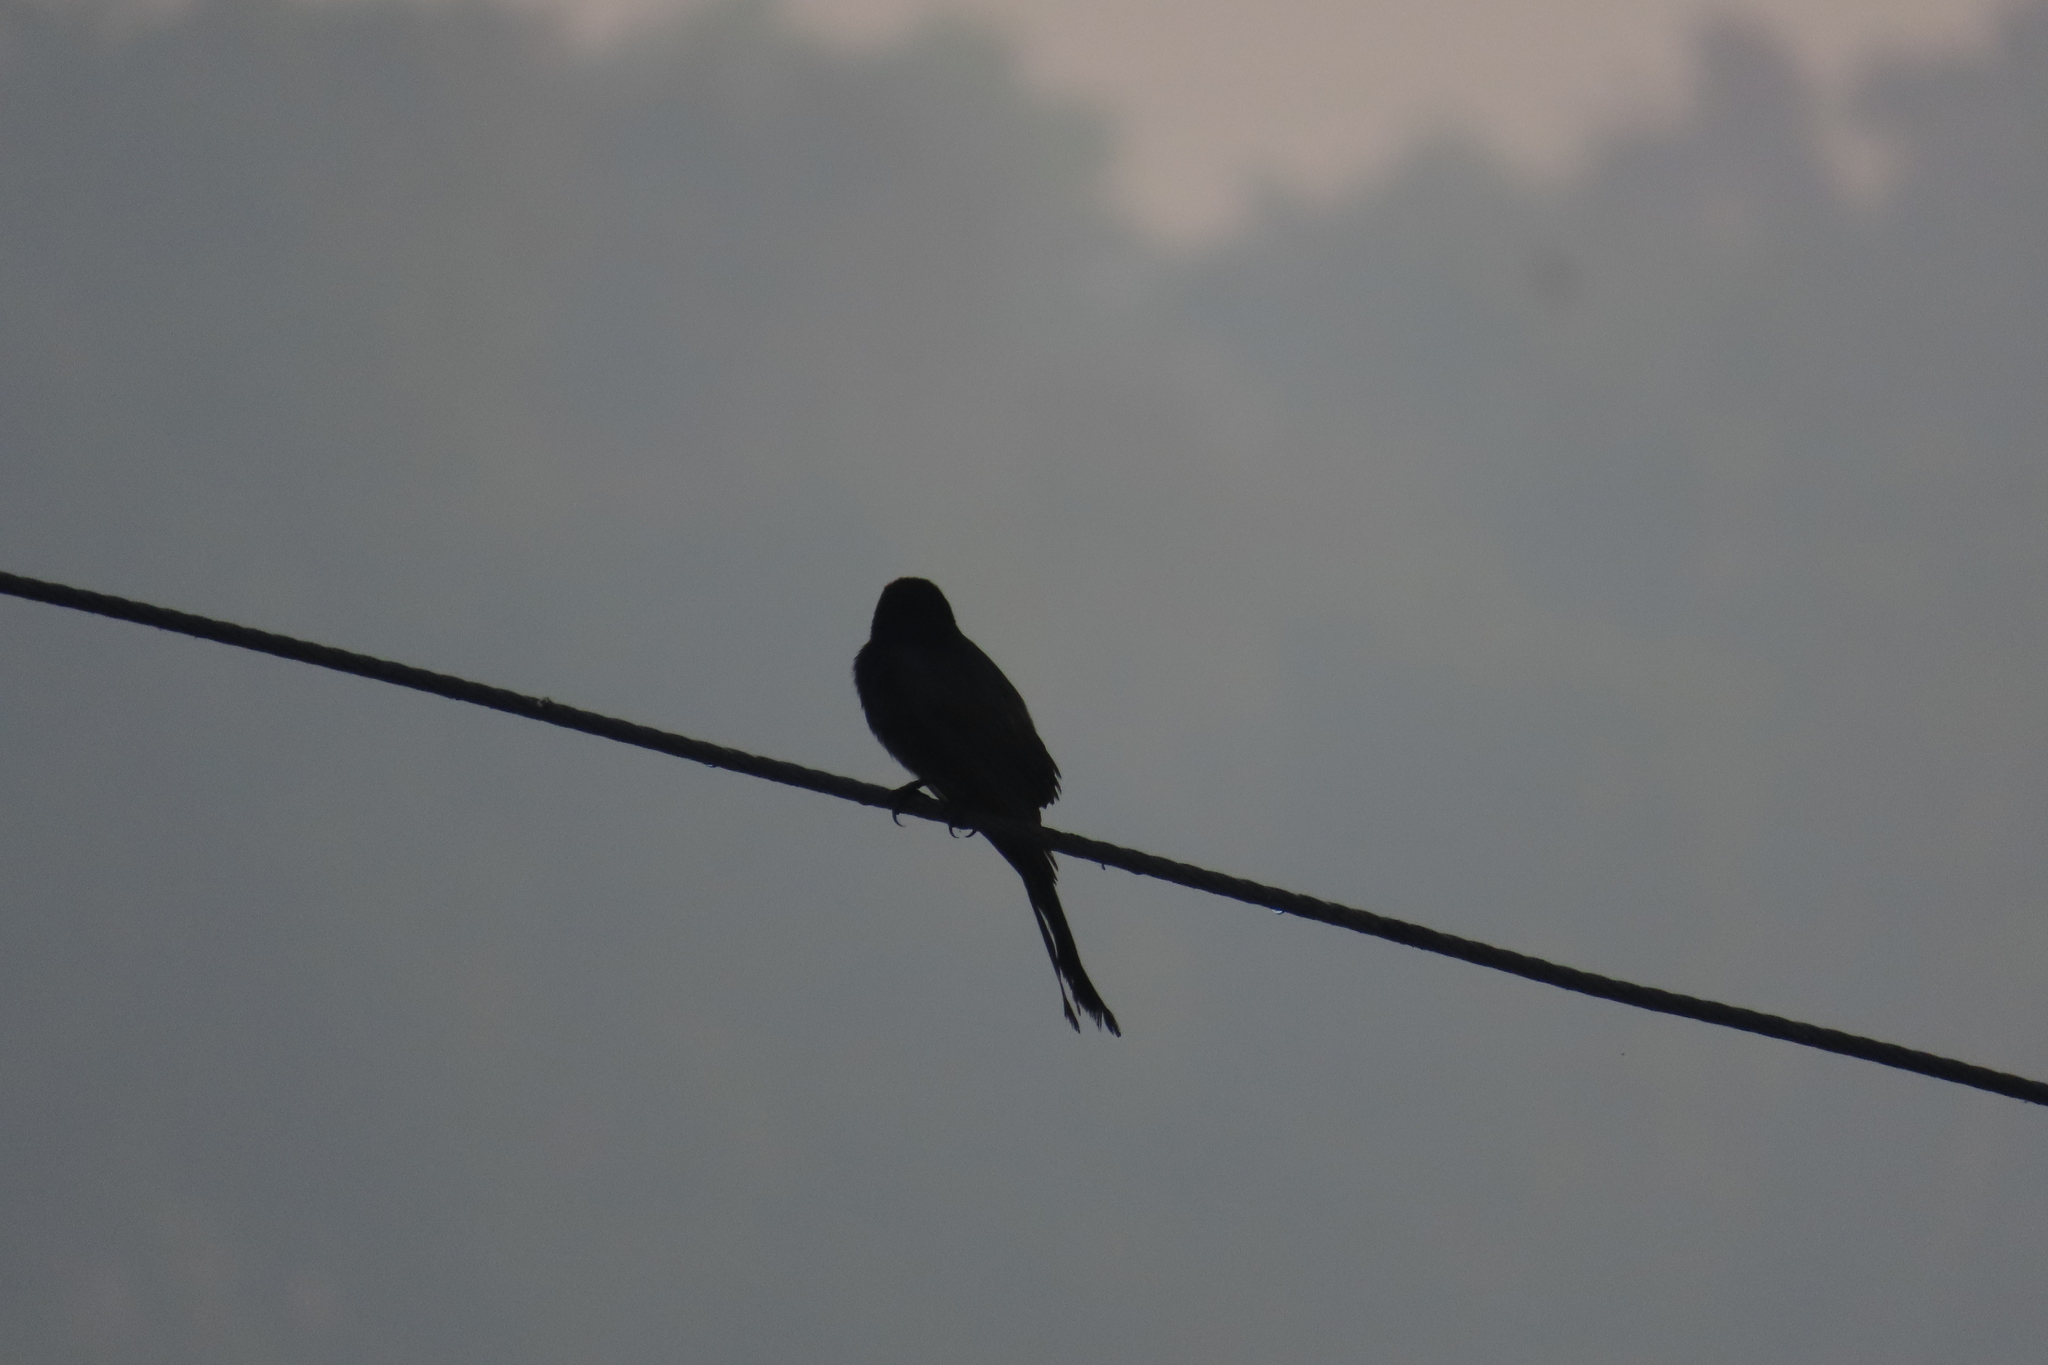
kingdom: Animalia
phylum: Chordata
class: Aves
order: Passeriformes
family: Dicruridae
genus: Dicrurus
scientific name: Dicrurus macrocercus
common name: Black drongo
